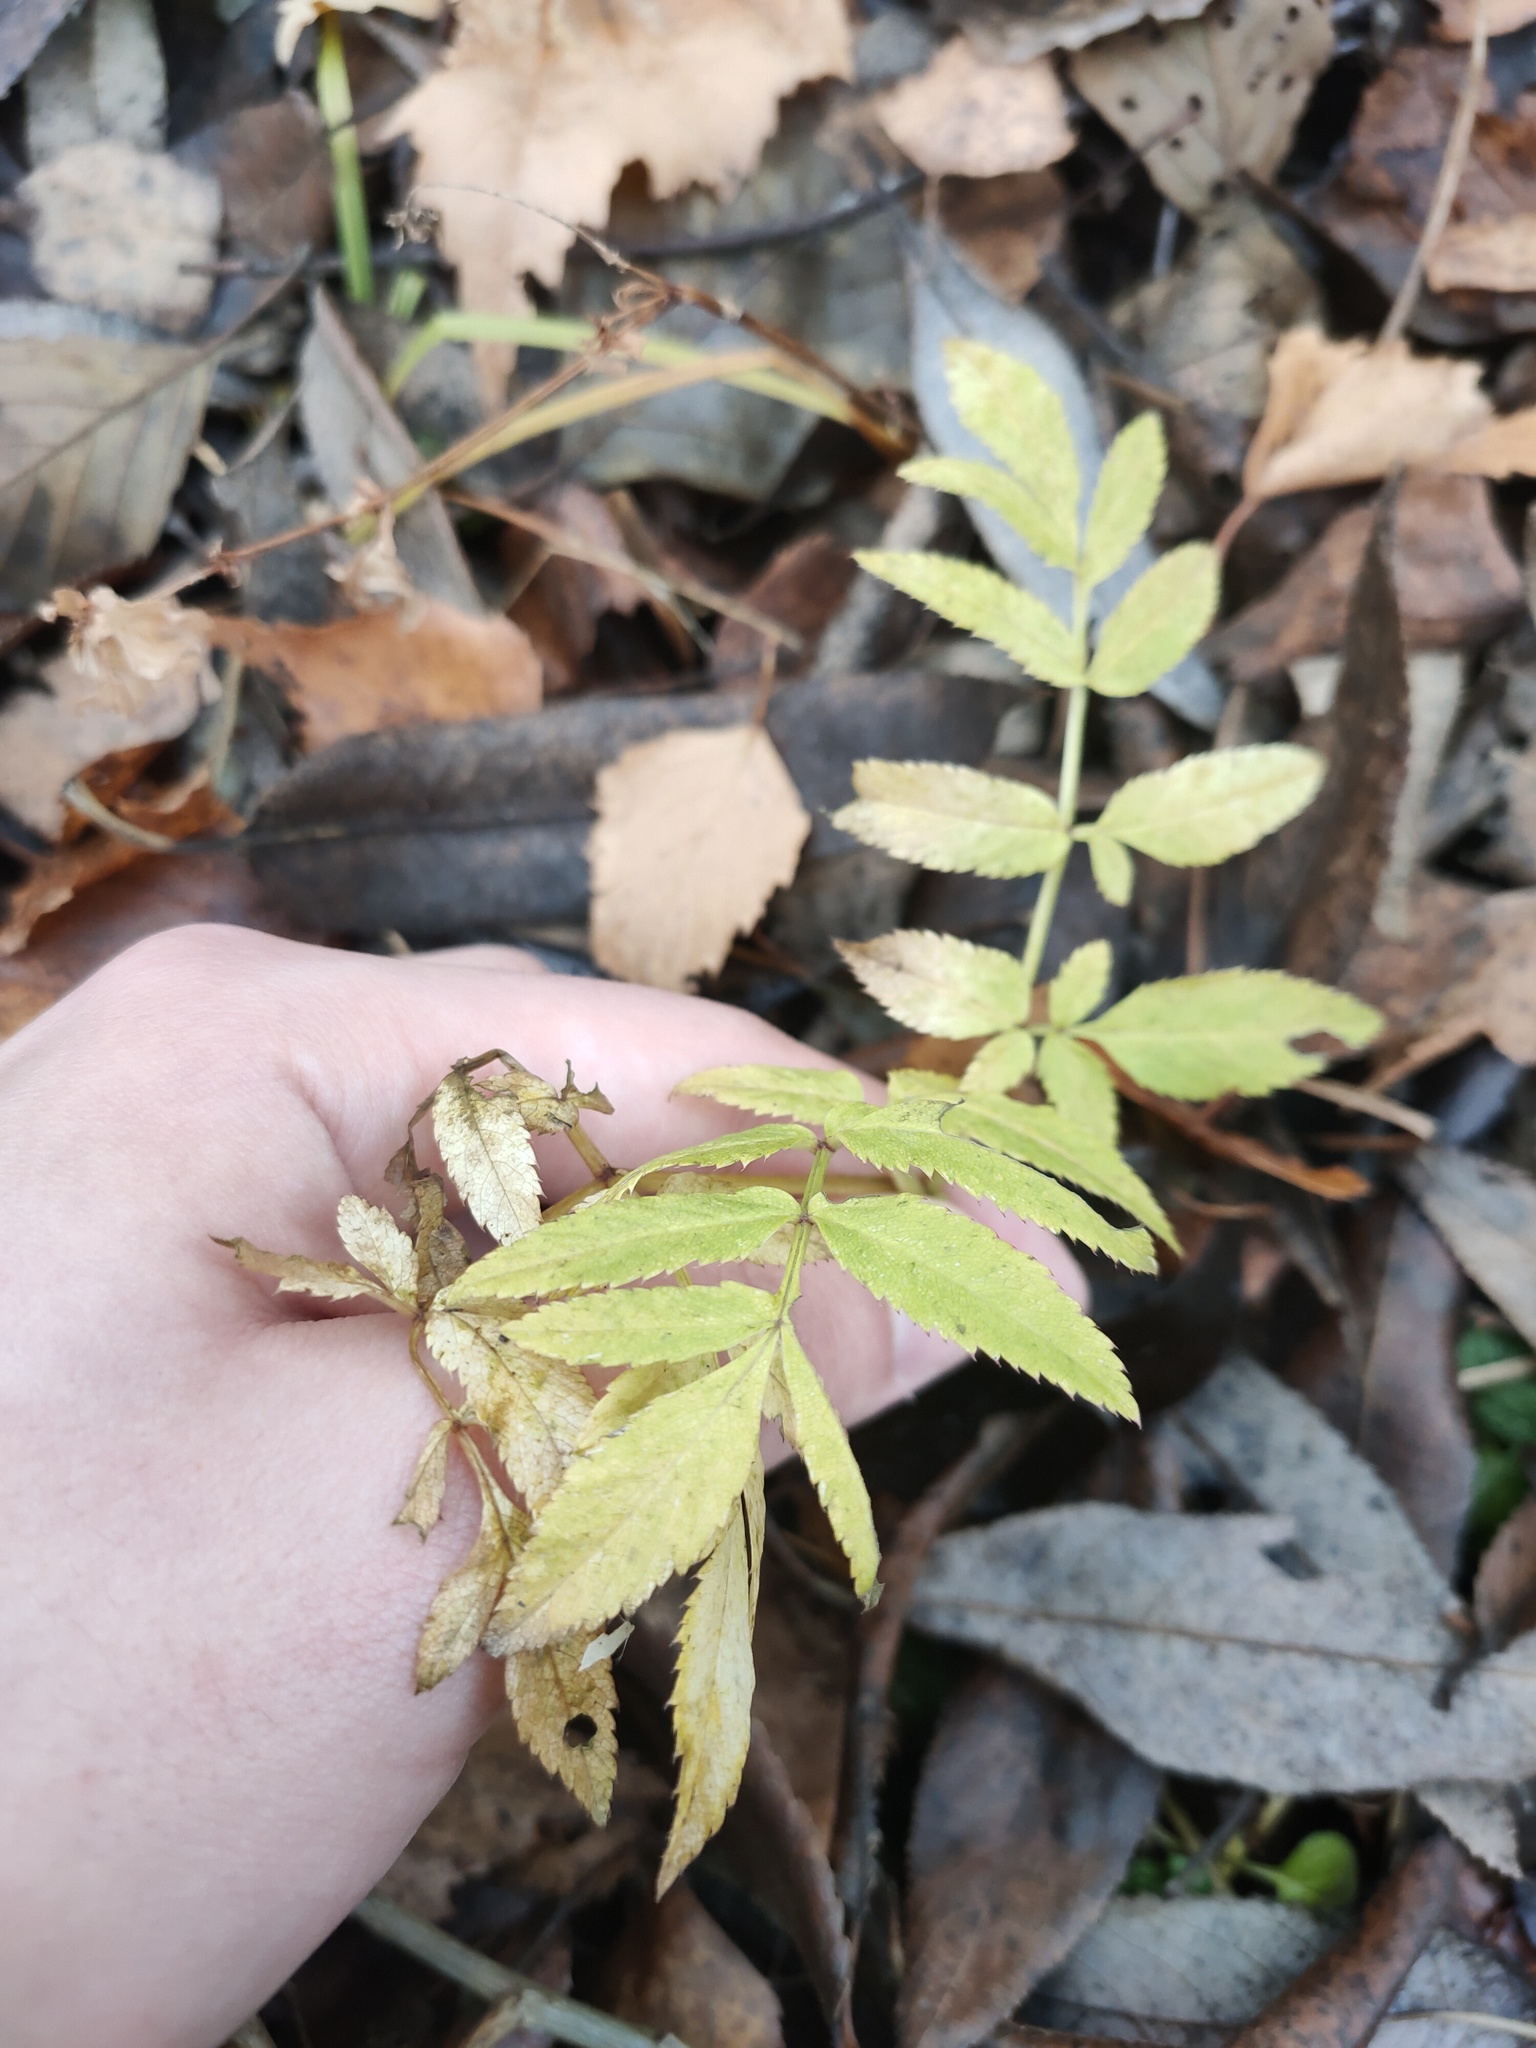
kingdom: Plantae
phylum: Tracheophyta
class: Magnoliopsida
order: Apiales
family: Apiaceae
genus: Angelica
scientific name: Angelica sylvestris
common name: Wild angelica
